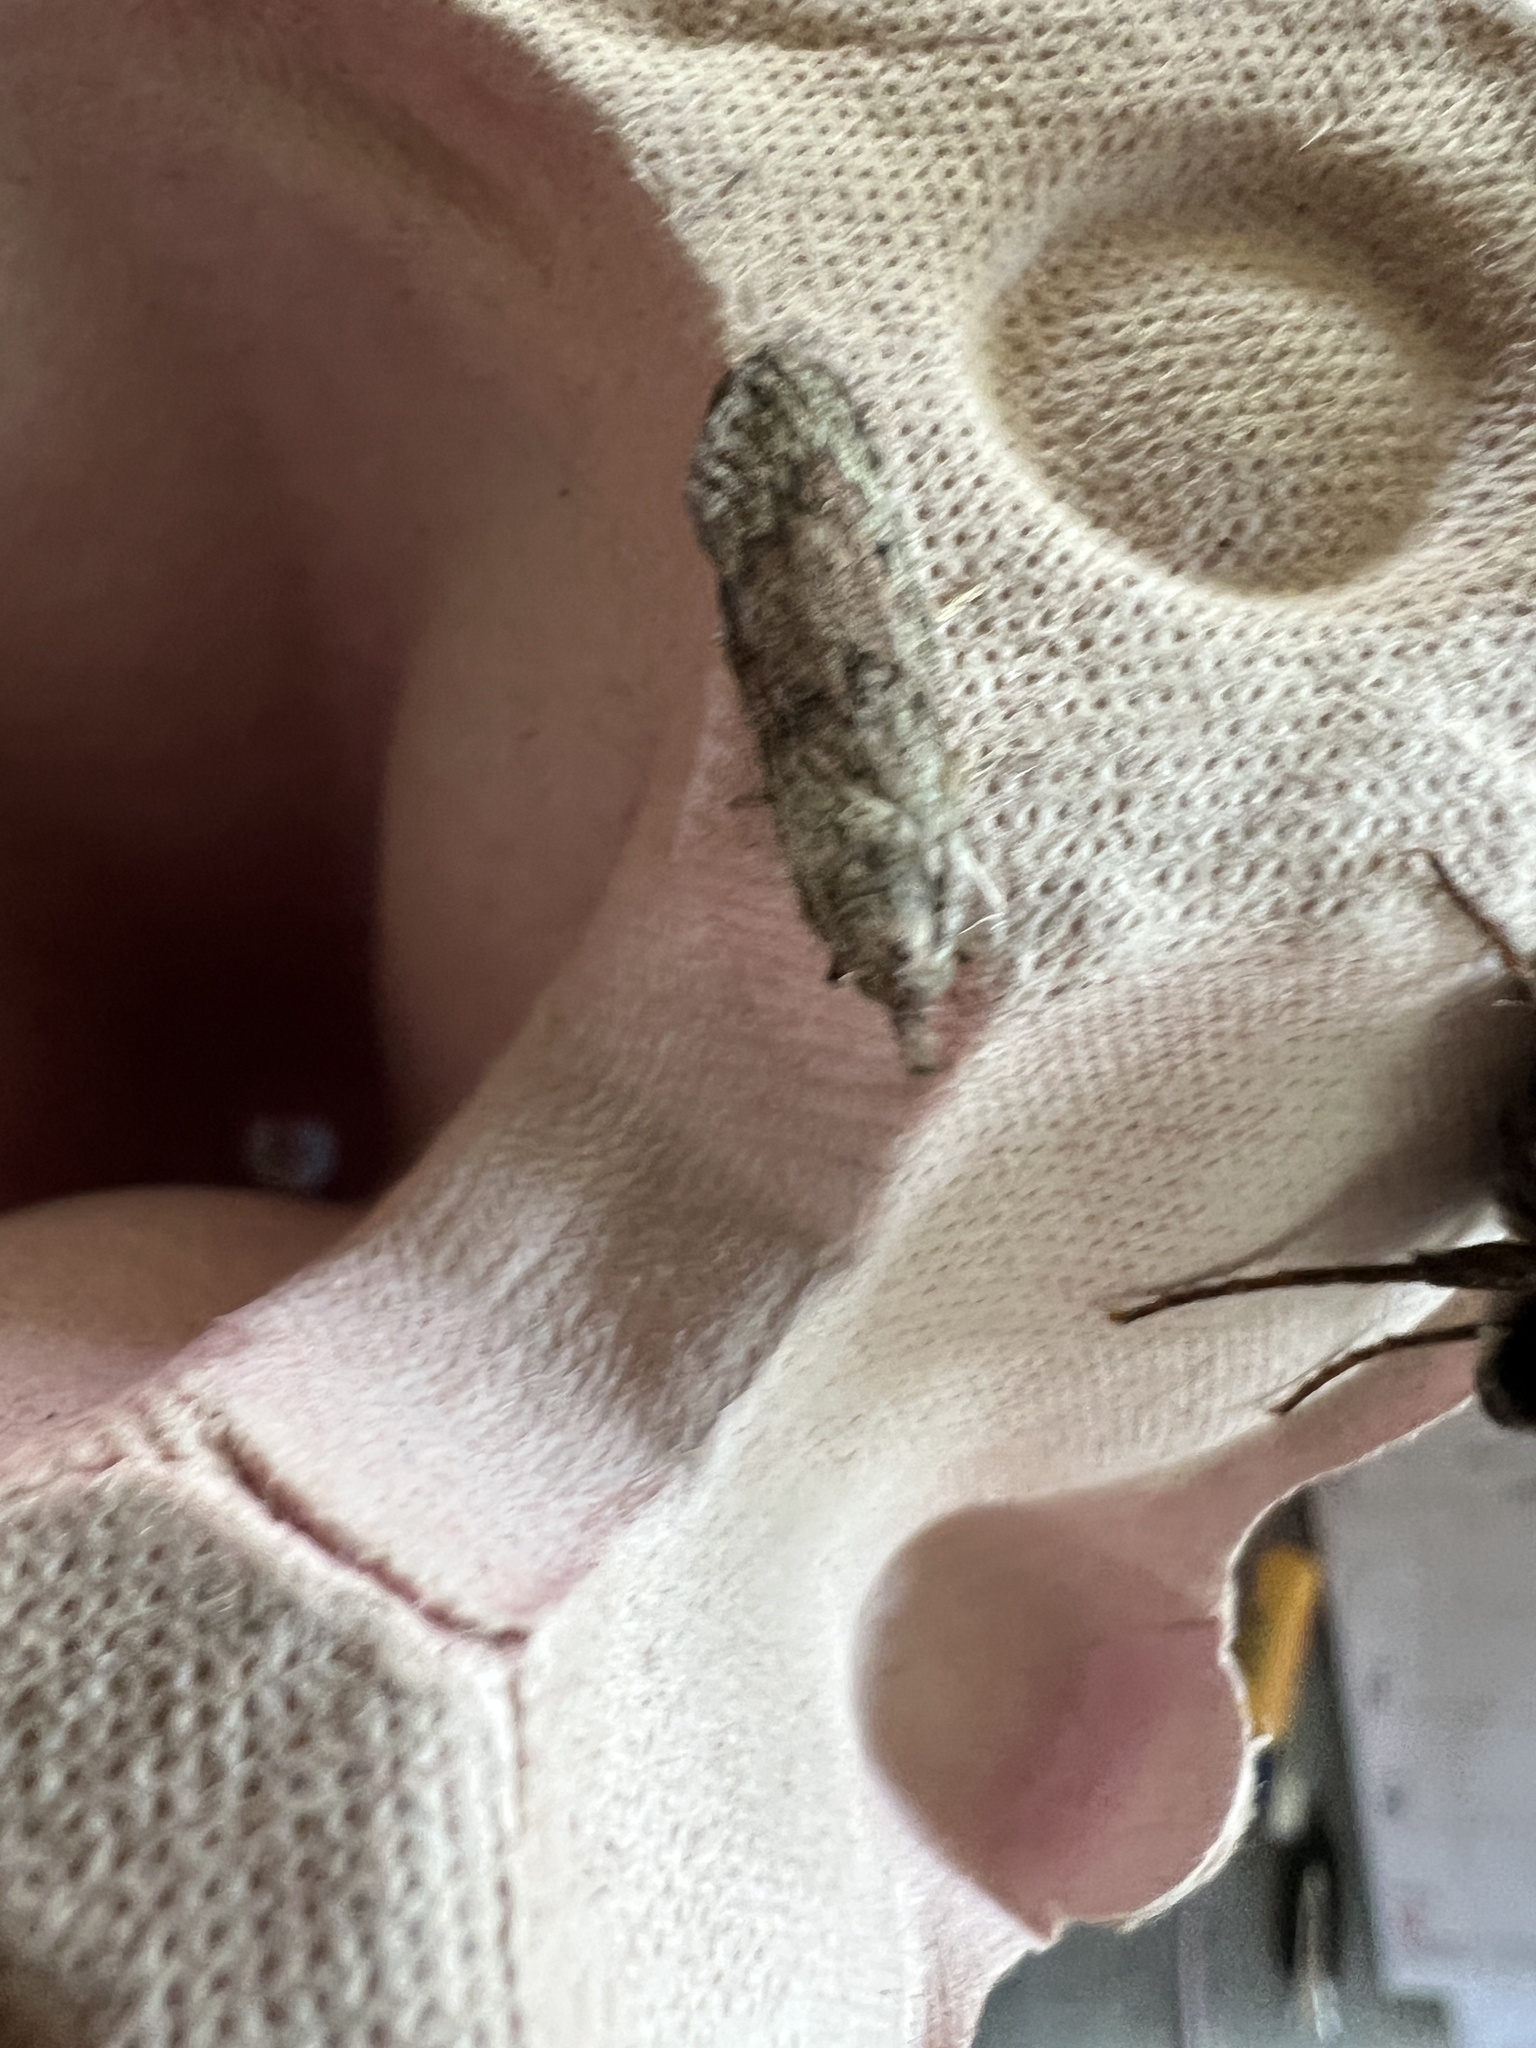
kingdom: Animalia
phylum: Arthropoda
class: Insecta
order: Lepidoptera
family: Pyralidae
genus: Aphomia
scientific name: Aphomia sociella
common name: Bee moth
